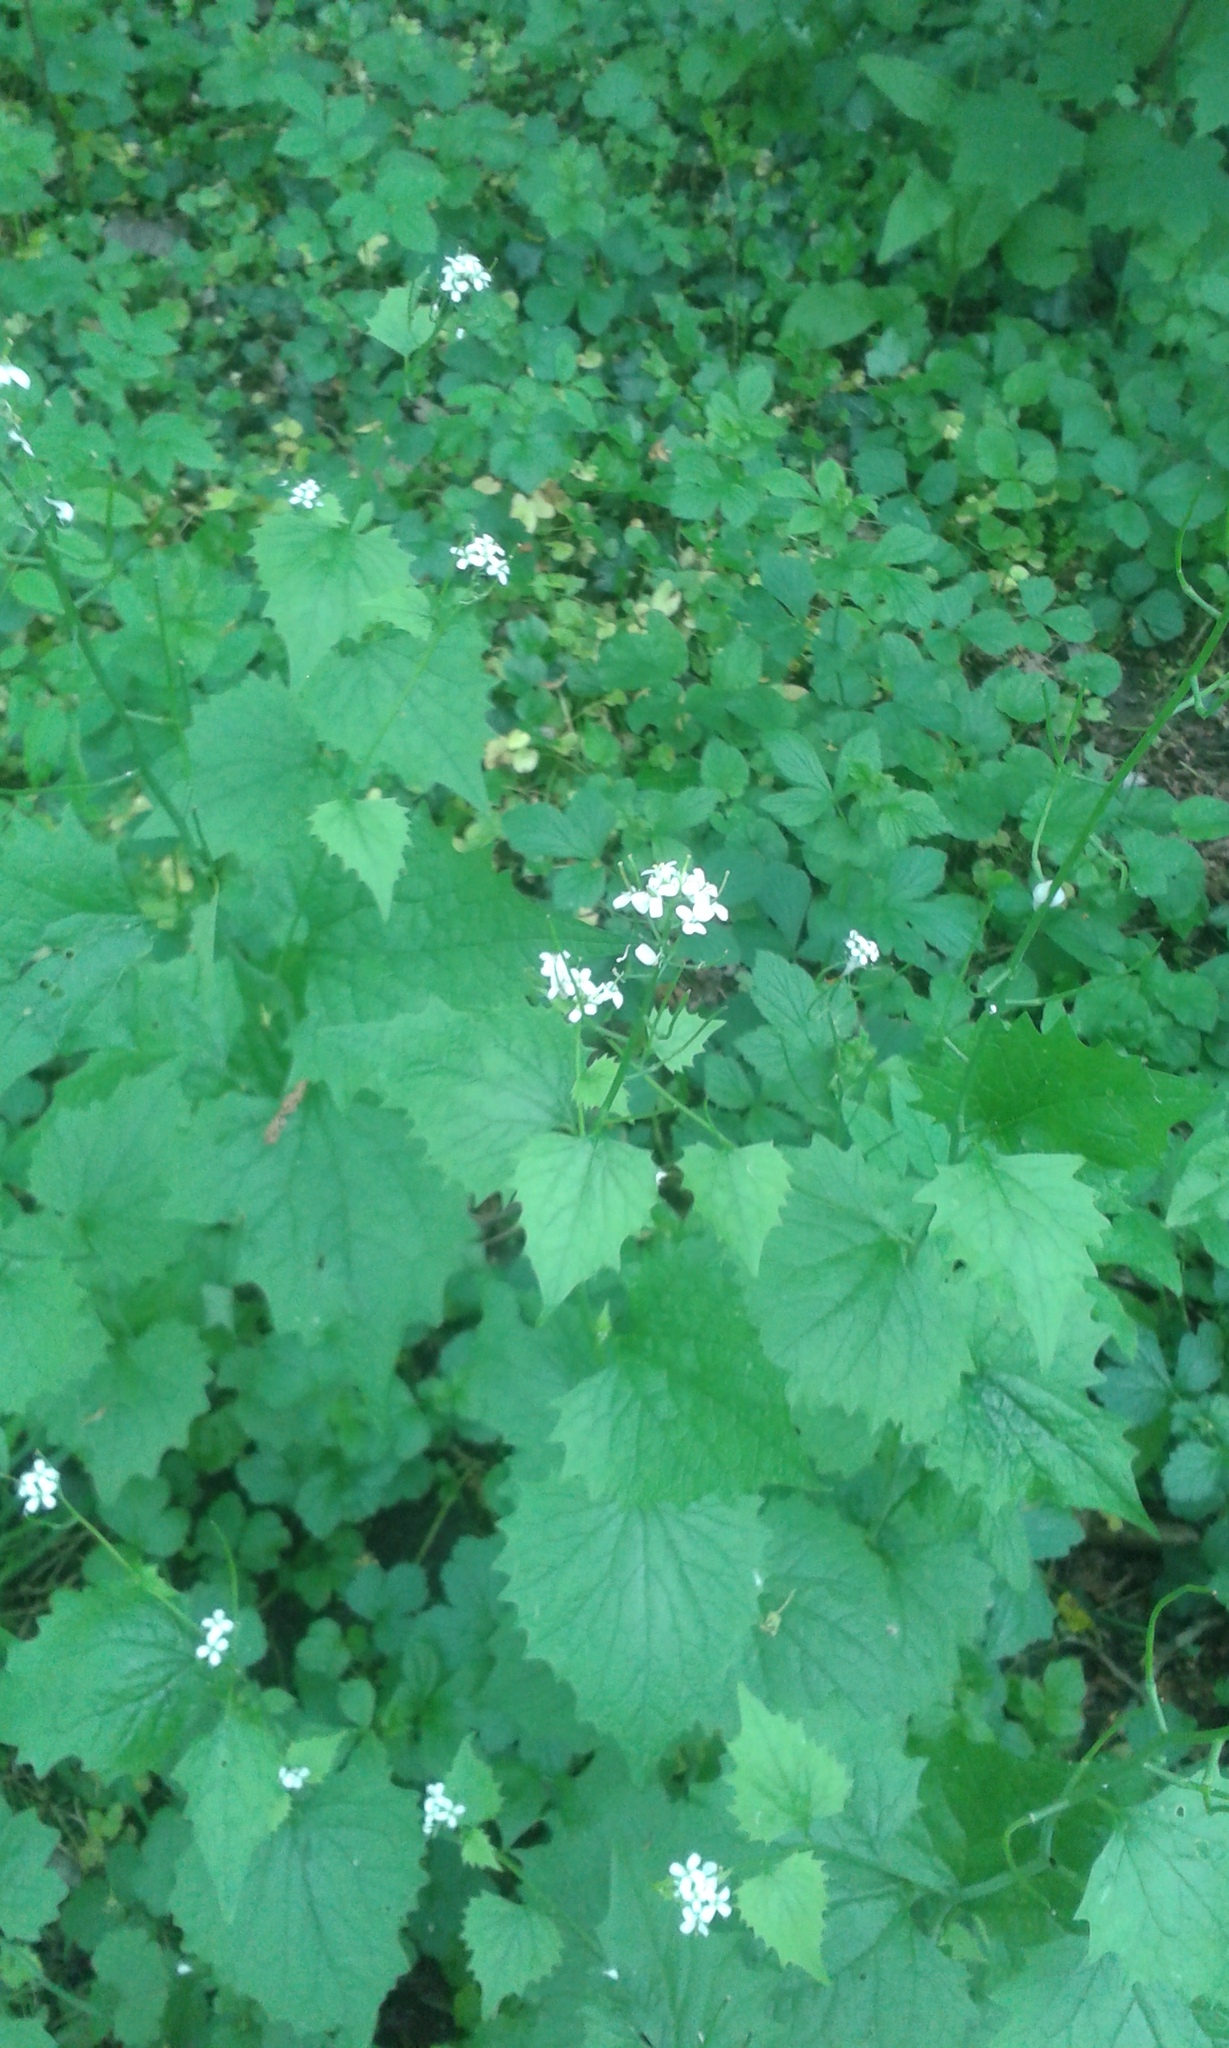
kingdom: Plantae
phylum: Tracheophyta
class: Magnoliopsida
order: Brassicales
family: Brassicaceae
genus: Alliaria
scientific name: Alliaria petiolata
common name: Garlic mustard
